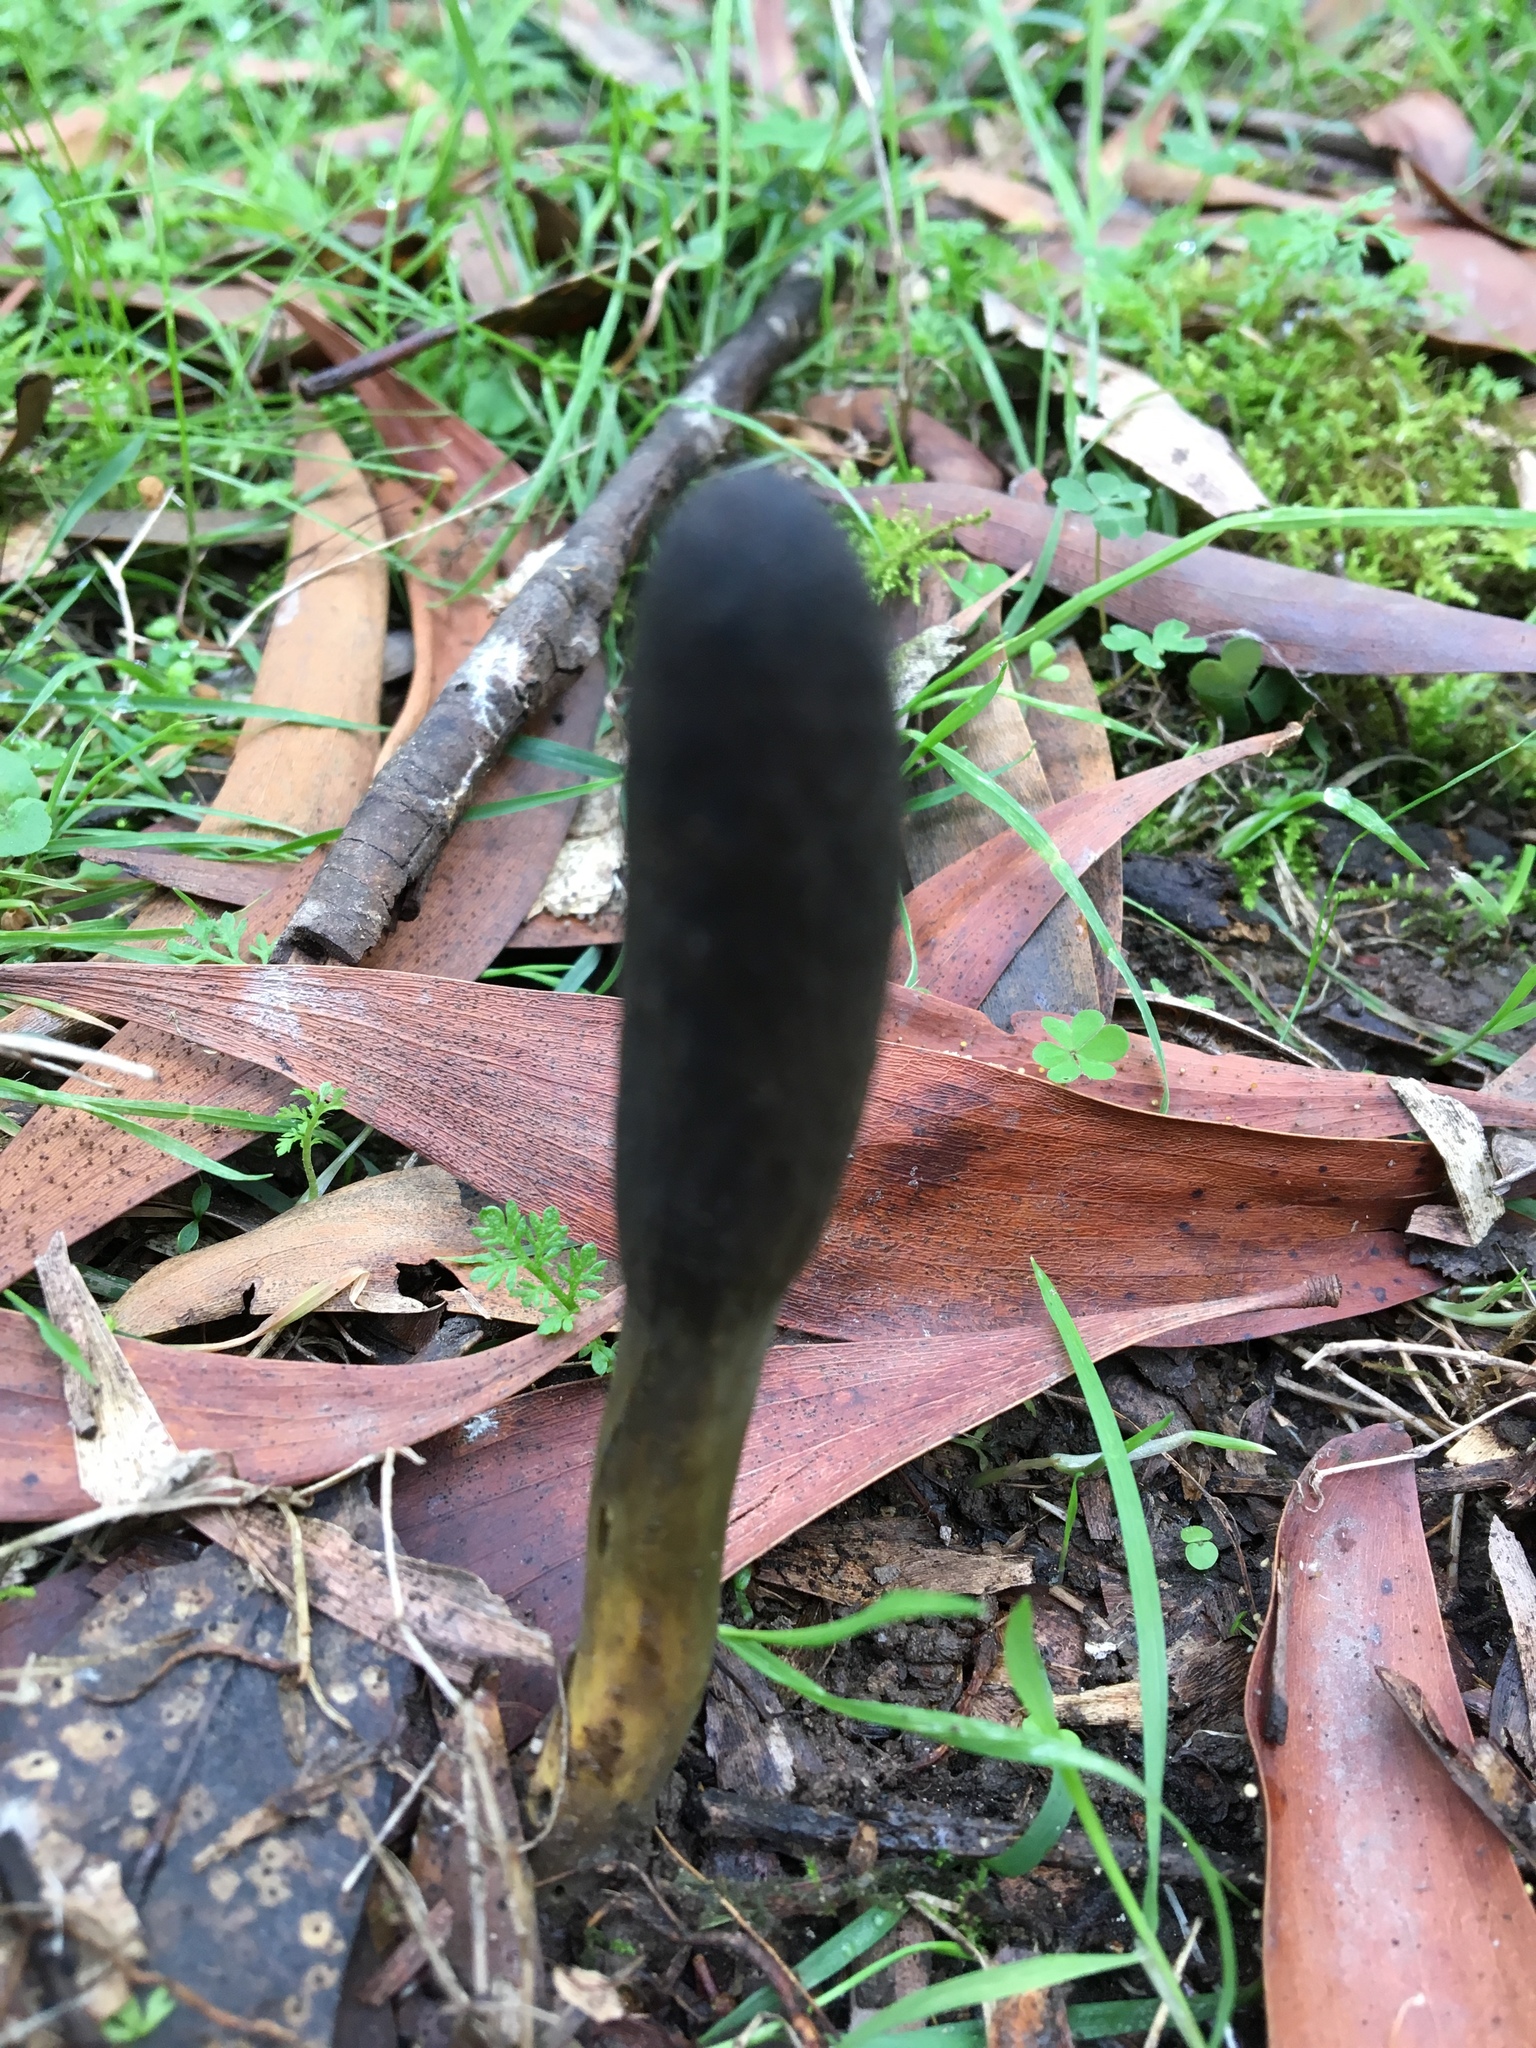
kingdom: Fungi
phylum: Ascomycota
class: Sordariomycetes
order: Hypocreales
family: Clavicipitaceae
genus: Drechmeria
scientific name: Drechmeria gunnii
